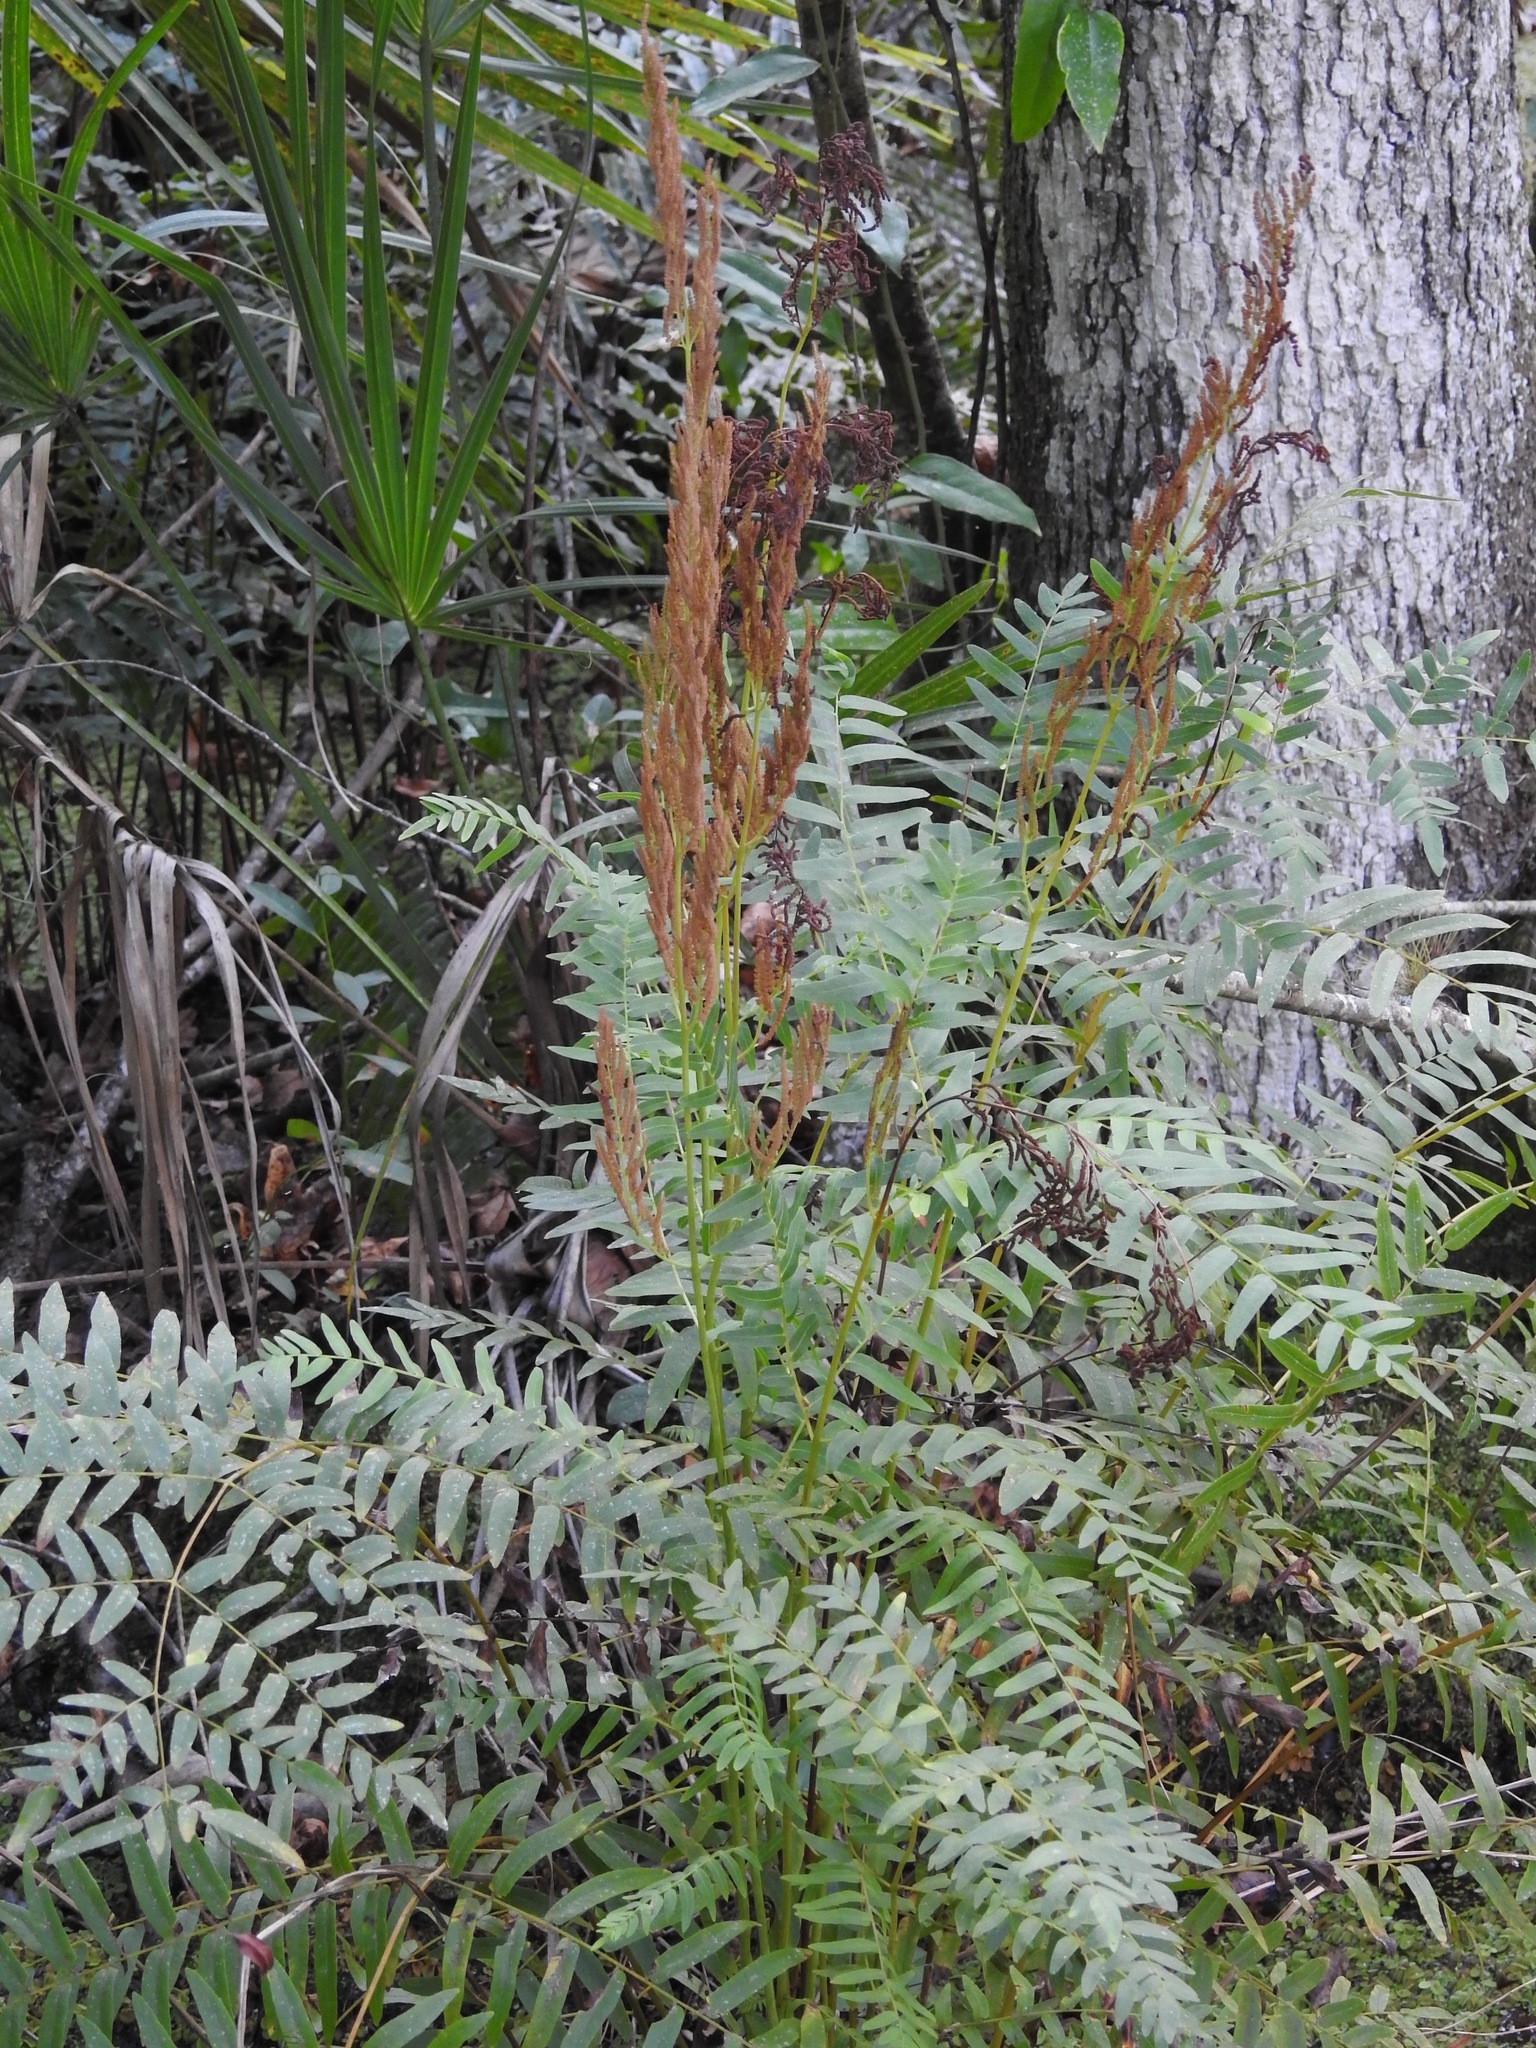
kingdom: Plantae
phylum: Tracheophyta
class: Polypodiopsida
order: Osmundales
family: Osmundaceae
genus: Osmunda
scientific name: Osmunda spectabilis
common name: American royal fern
